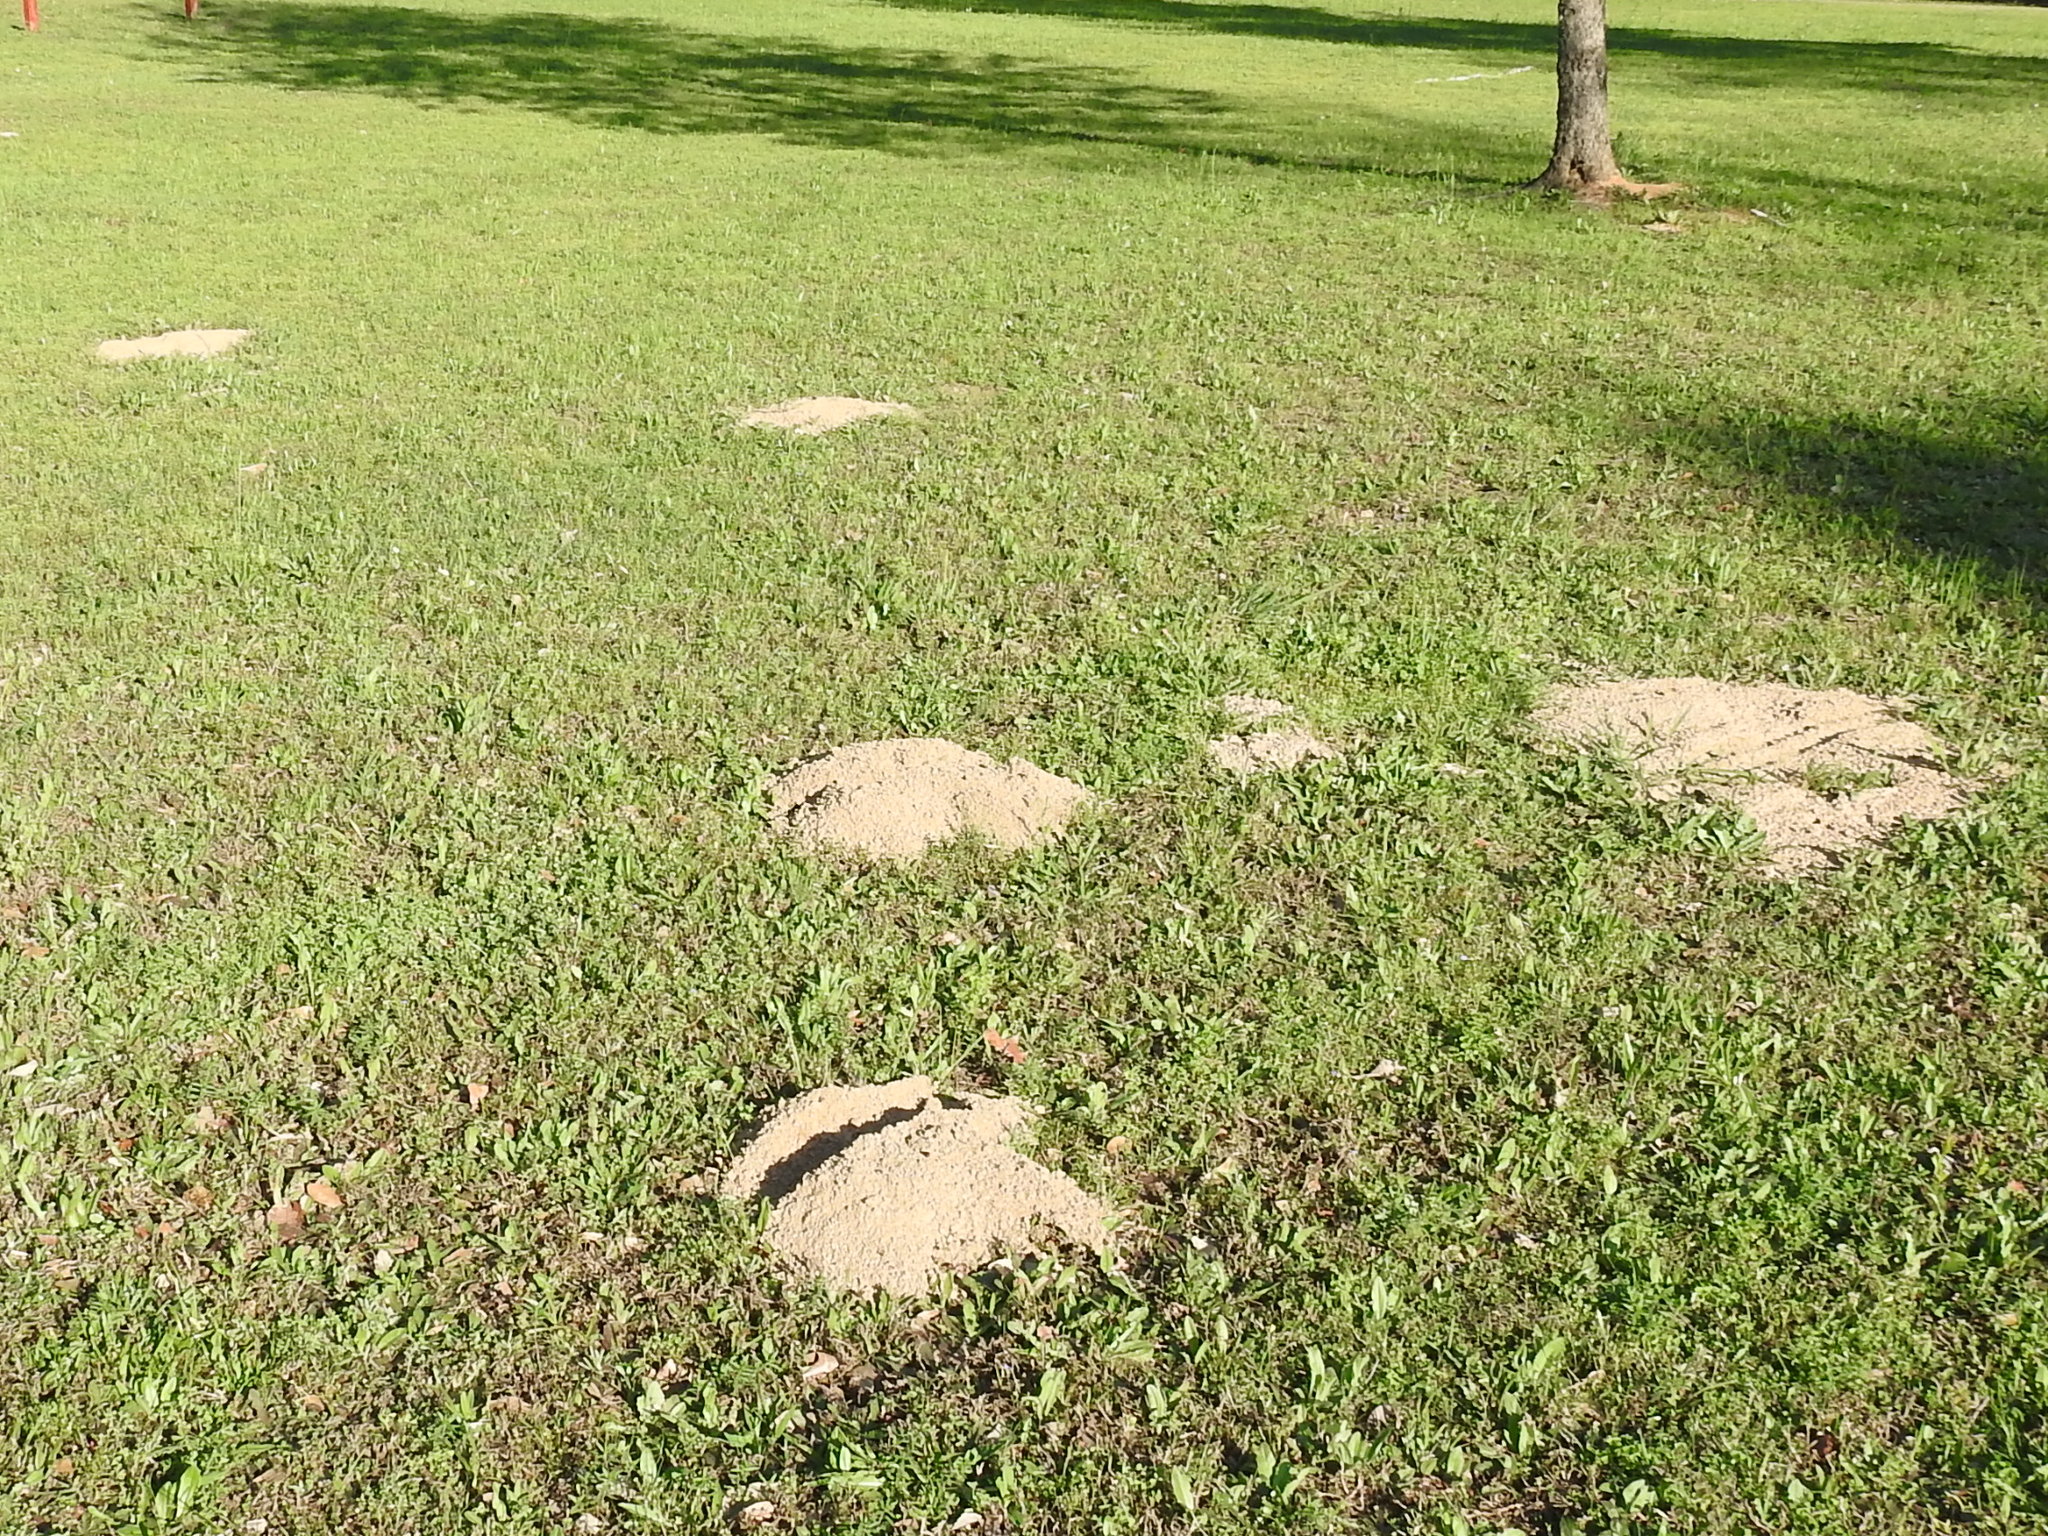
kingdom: Animalia
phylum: Chordata
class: Mammalia
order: Rodentia
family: Geomyidae
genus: Geomys
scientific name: Geomys breviceps
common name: Baird's pocket gopher
